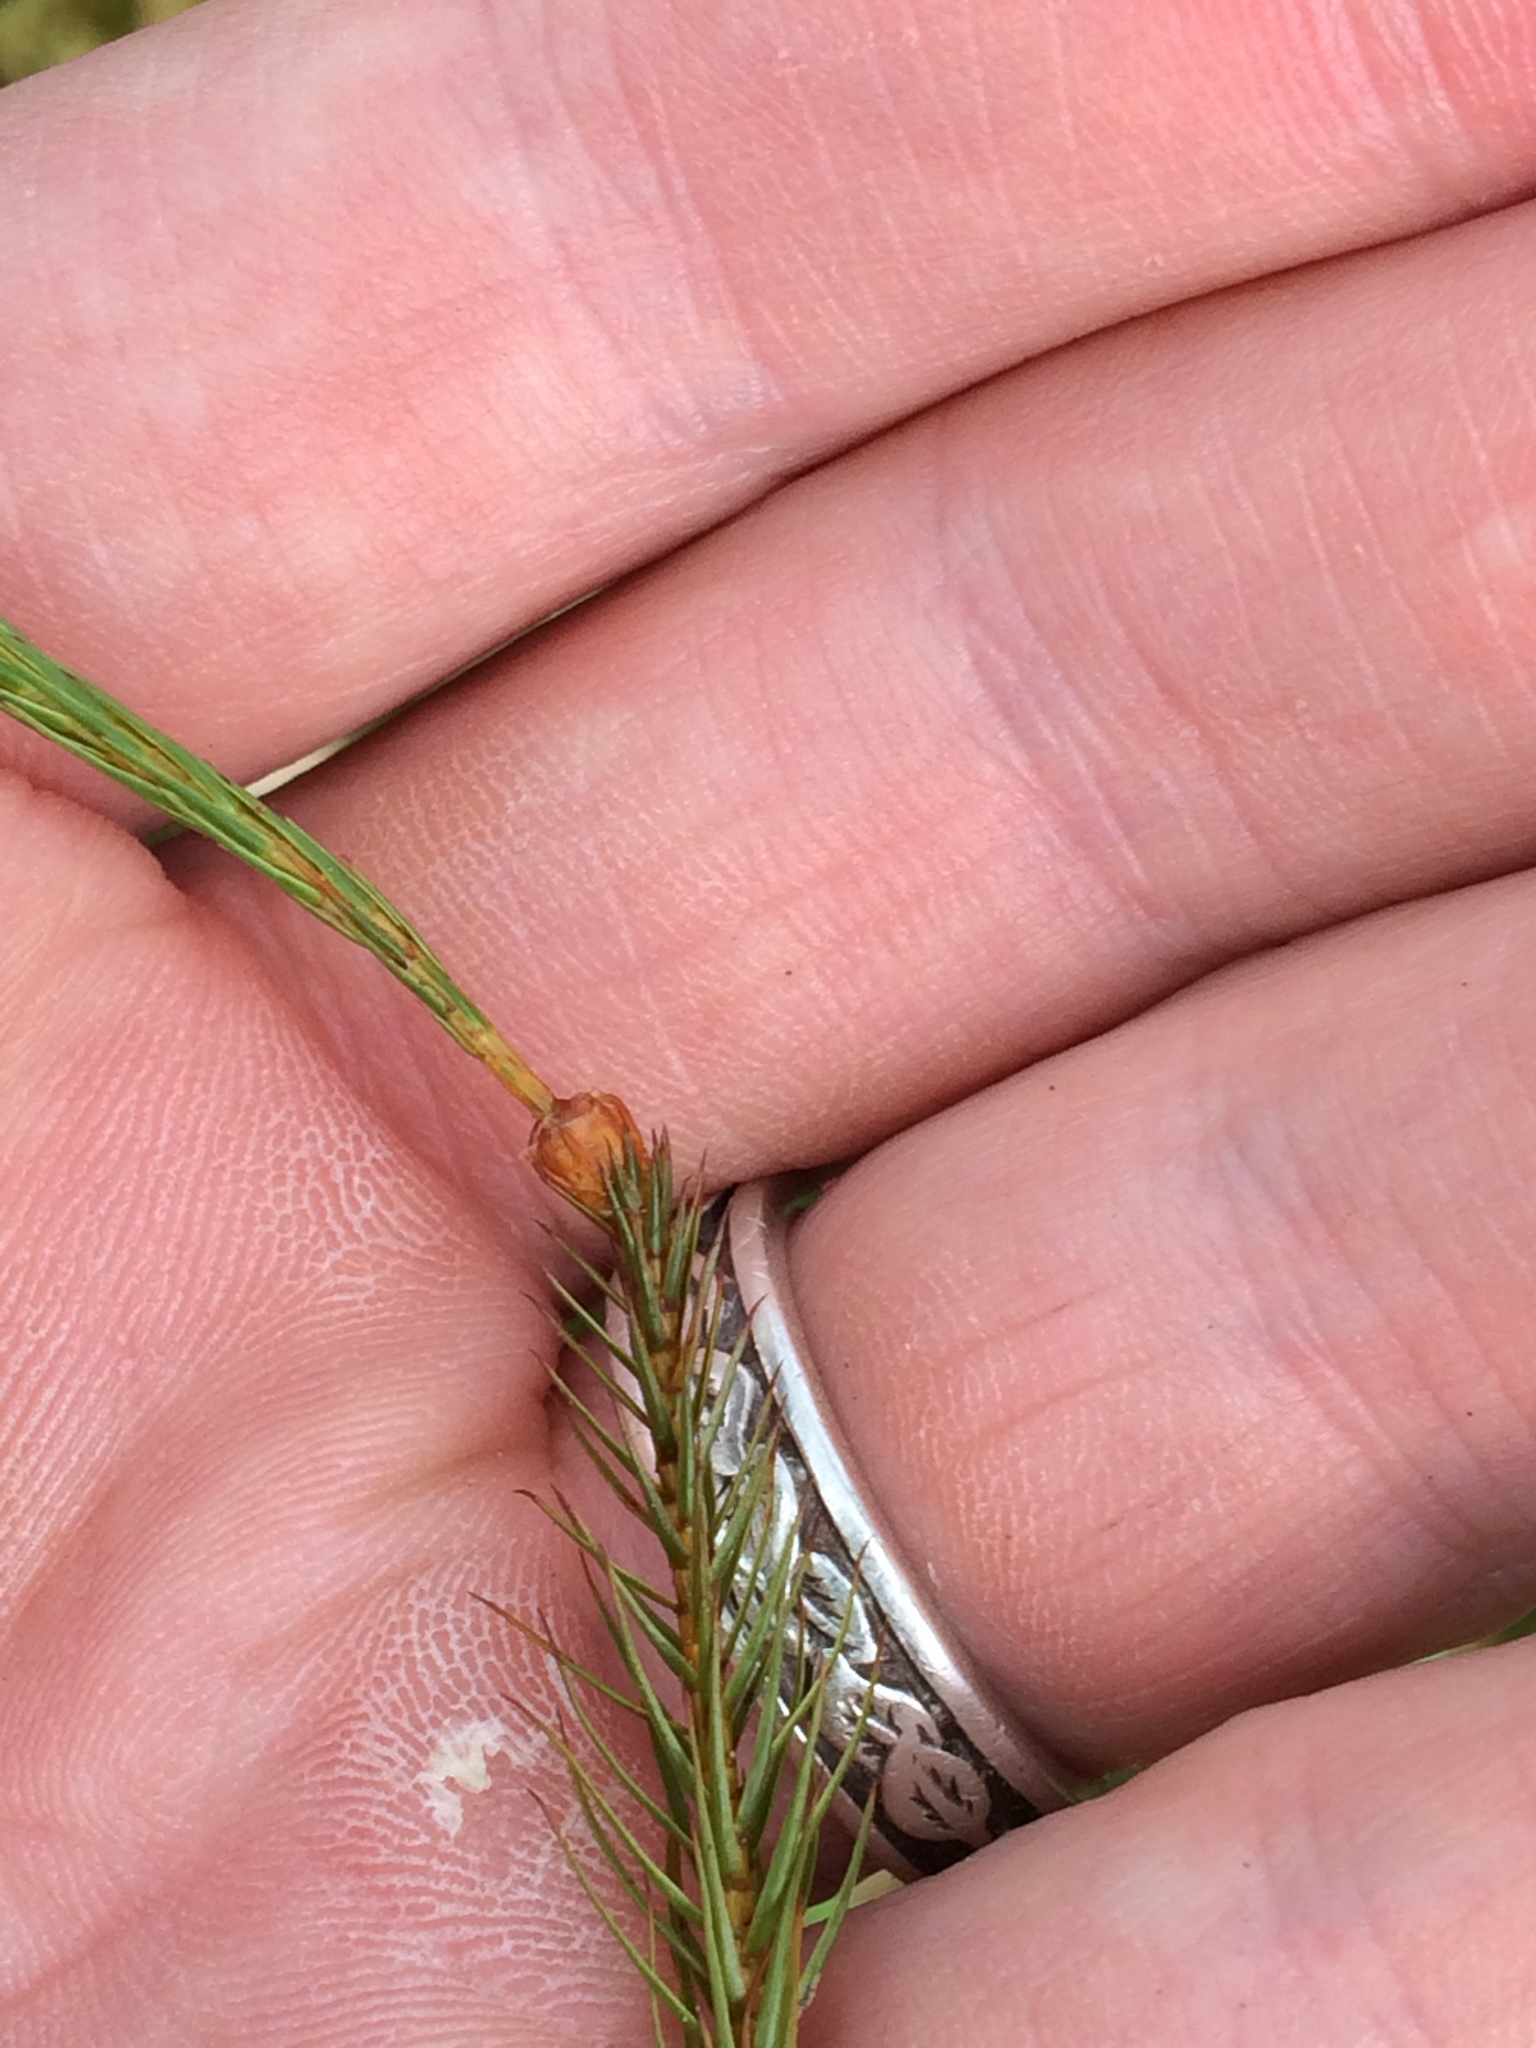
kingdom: Plantae
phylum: Bryophyta
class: Polytrichopsida
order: Polytrichales
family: Polytrichaceae
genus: Polytrichum
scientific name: Polytrichum strictum
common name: Bog haircap moss
